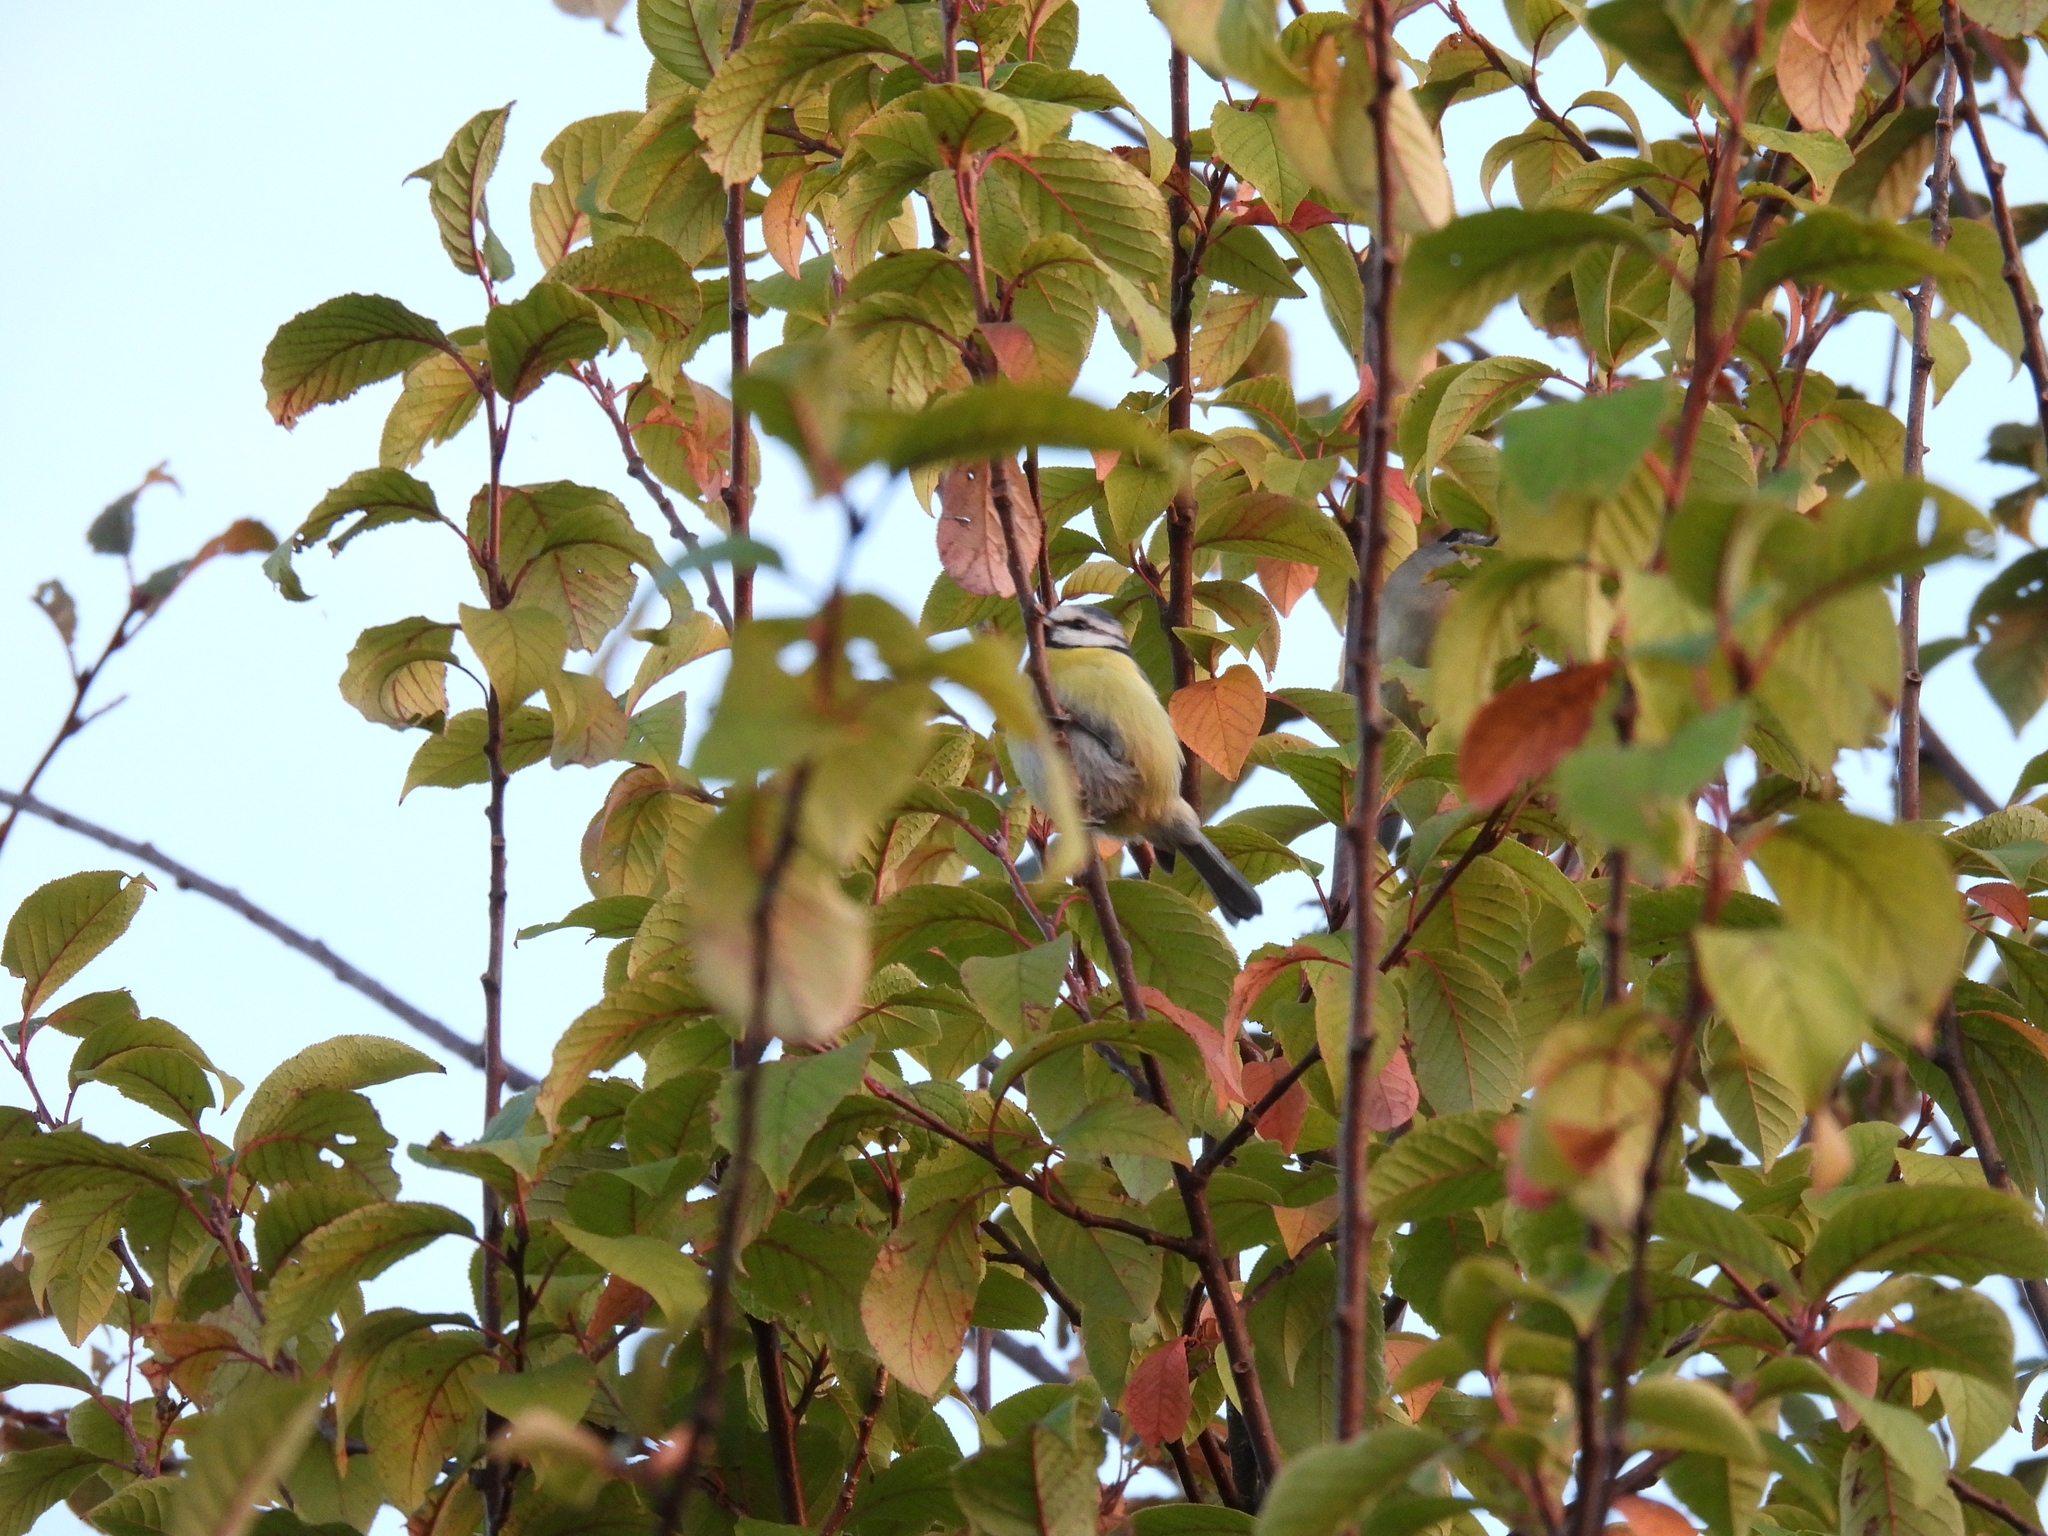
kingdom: Animalia
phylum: Chordata
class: Aves
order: Passeriformes
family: Paridae
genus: Cyanistes
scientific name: Cyanistes caeruleus
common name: Eurasian blue tit
